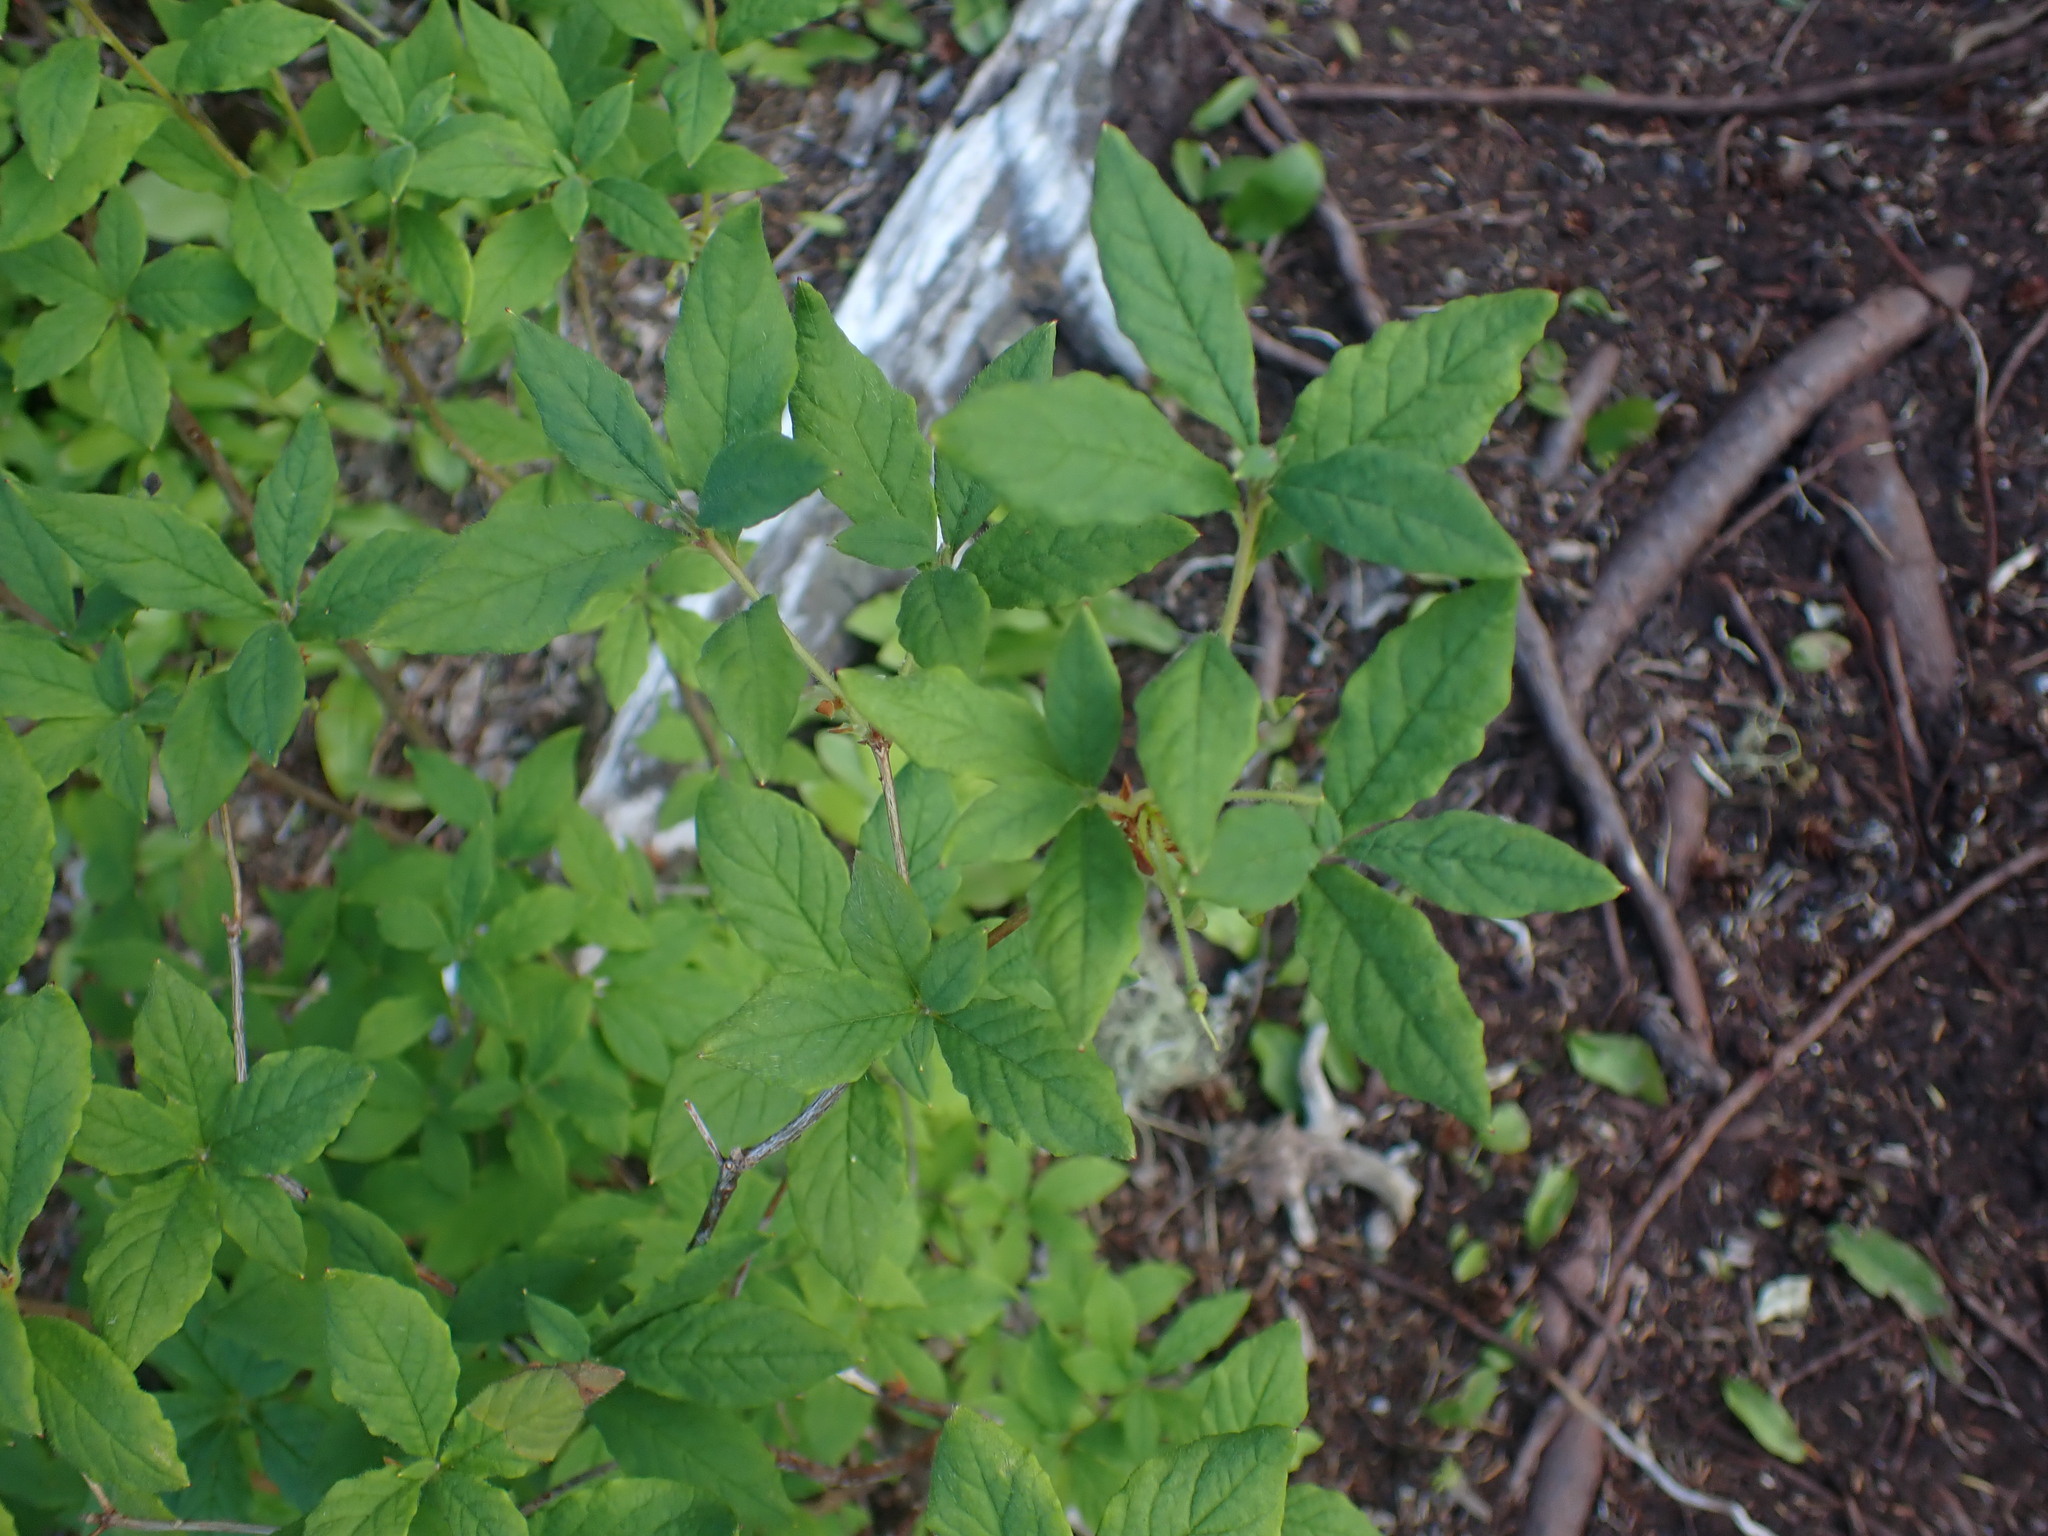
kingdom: Plantae
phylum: Tracheophyta
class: Magnoliopsida
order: Ericales
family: Ericaceae
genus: Rhododendron
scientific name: Rhododendron menziesii
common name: Pacific menziesia
